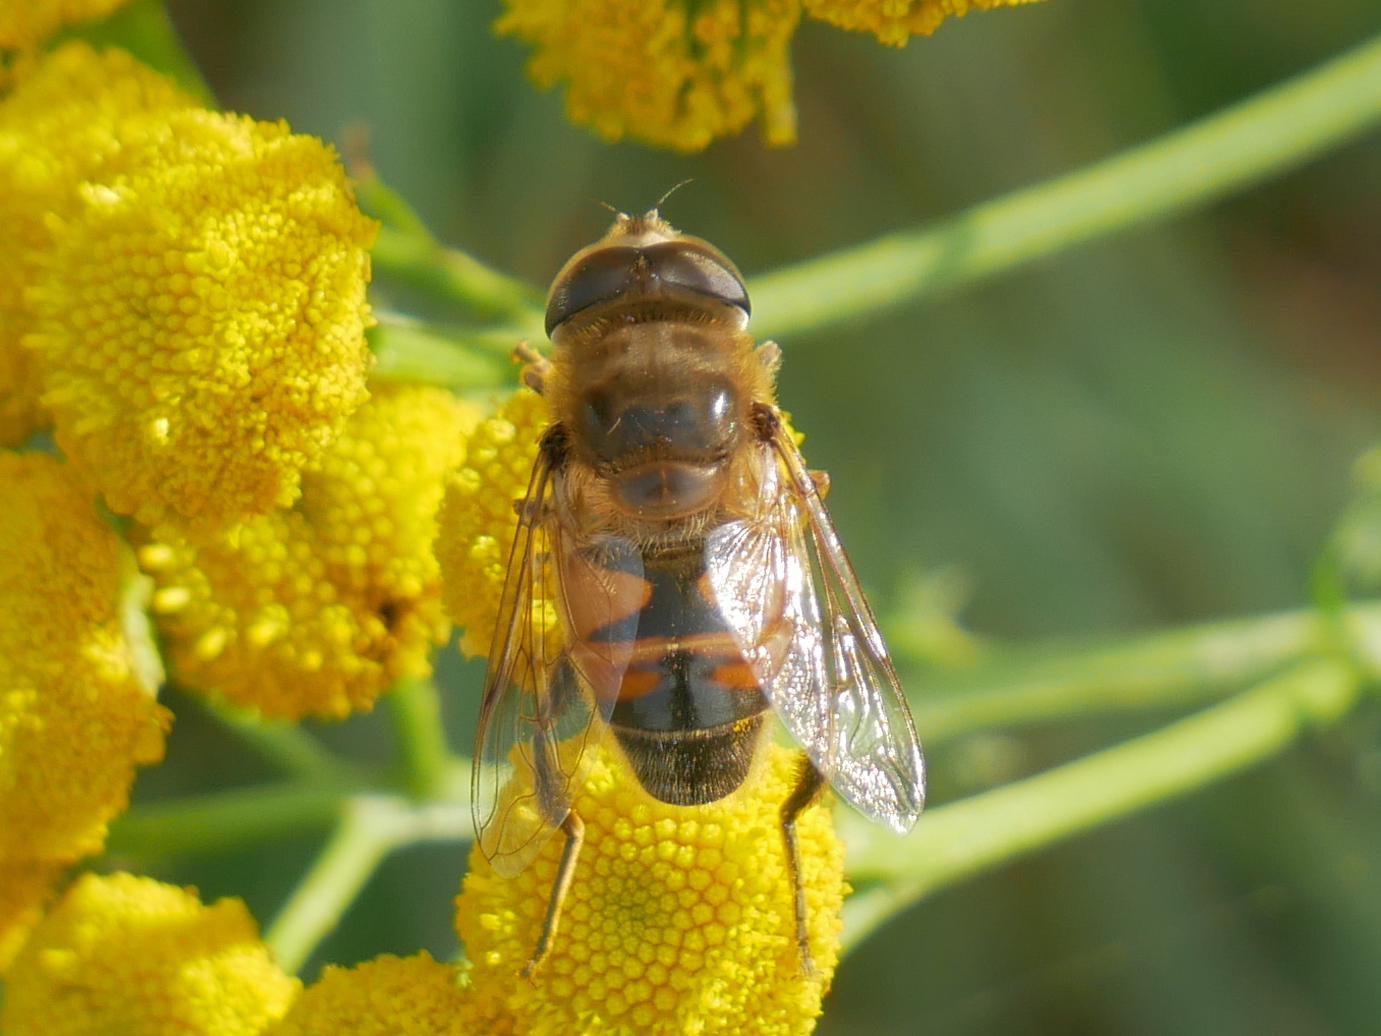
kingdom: Animalia
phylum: Arthropoda
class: Insecta
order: Diptera
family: Syrphidae
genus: Eristalis
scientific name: Eristalis tenax
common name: Drone fly
